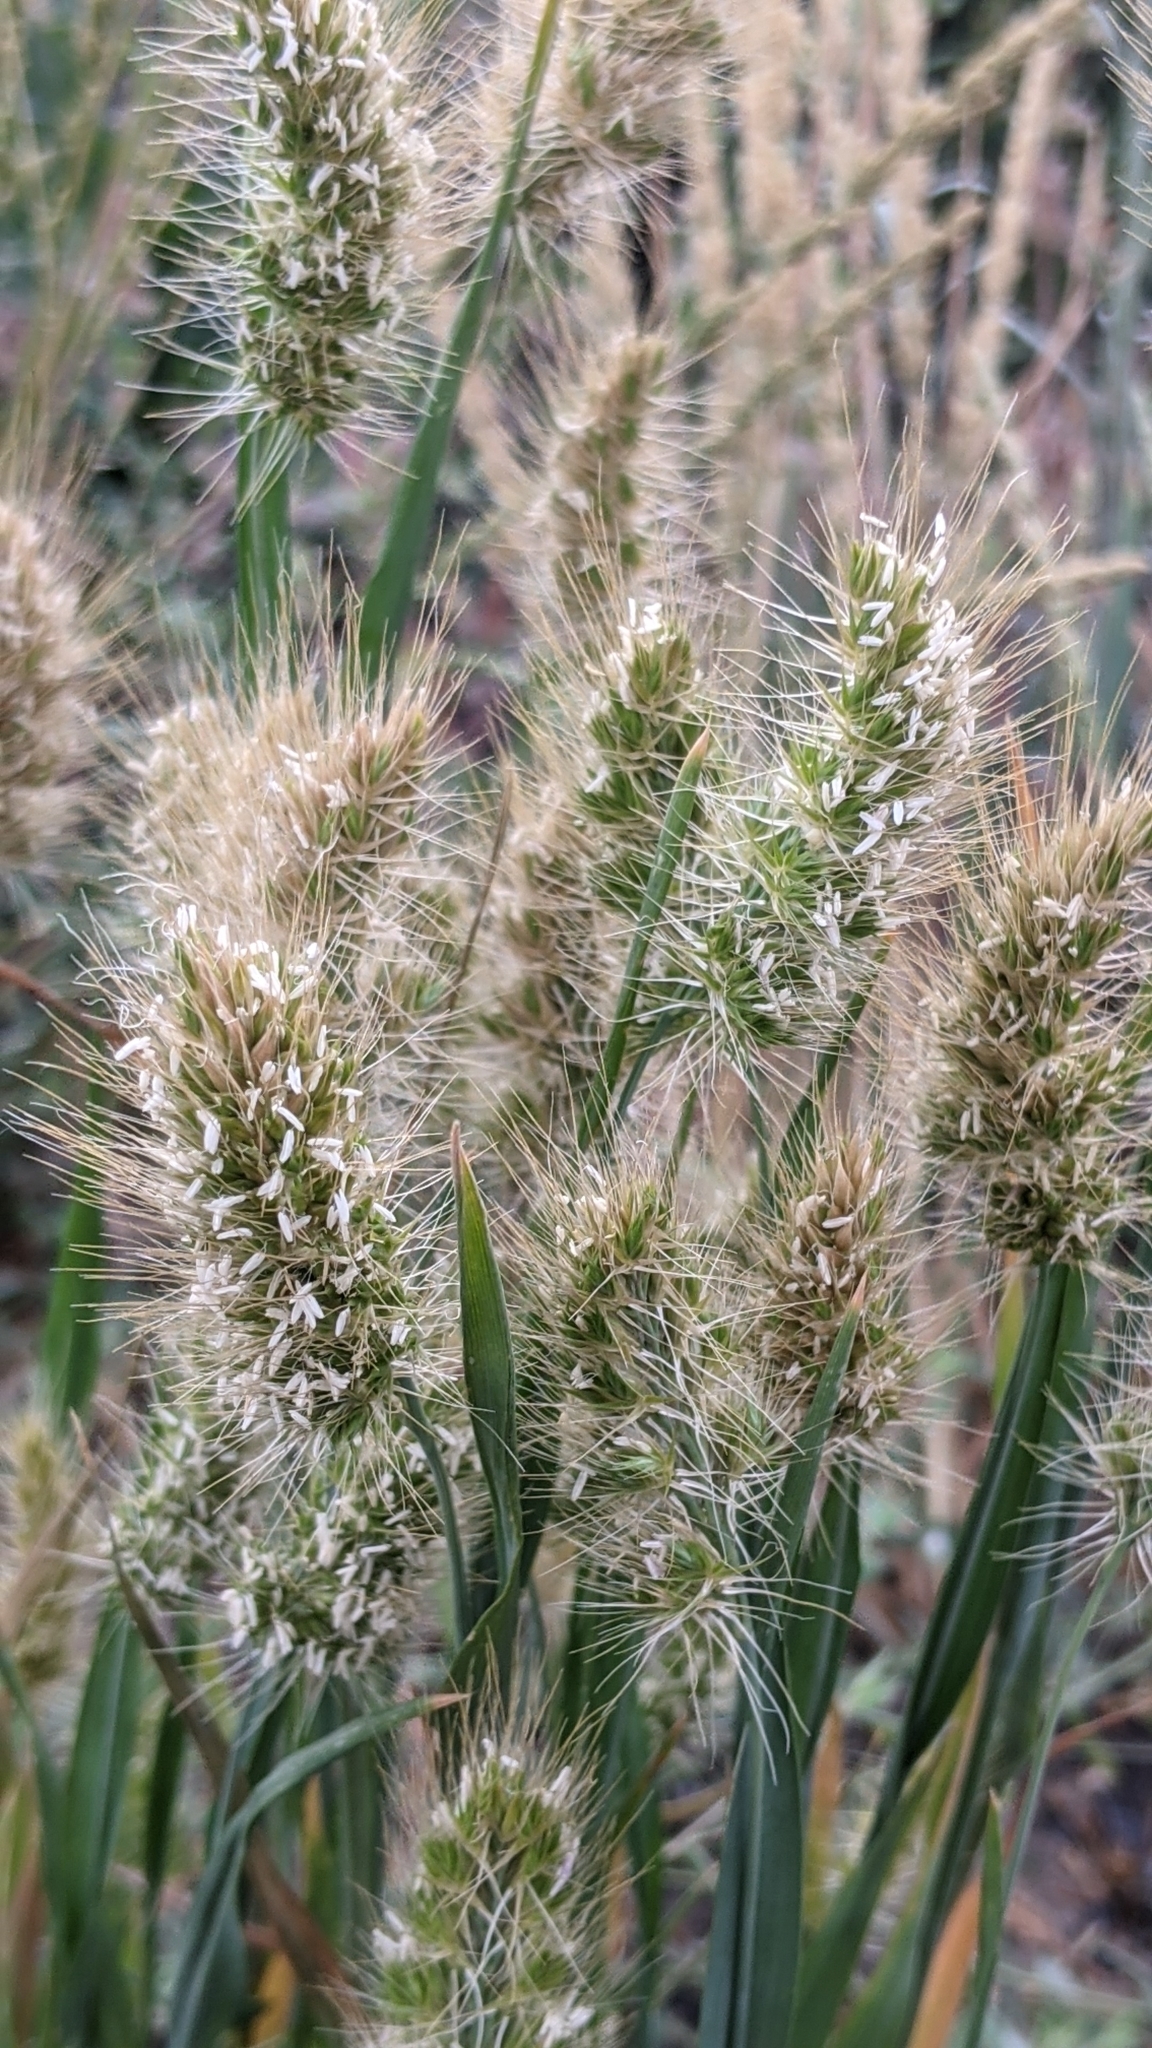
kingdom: Plantae
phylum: Tracheophyta
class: Liliopsida
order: Poales
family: Poaceae
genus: Cynosurus
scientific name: Cynosurus echinatus
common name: Rough dog's-tail
